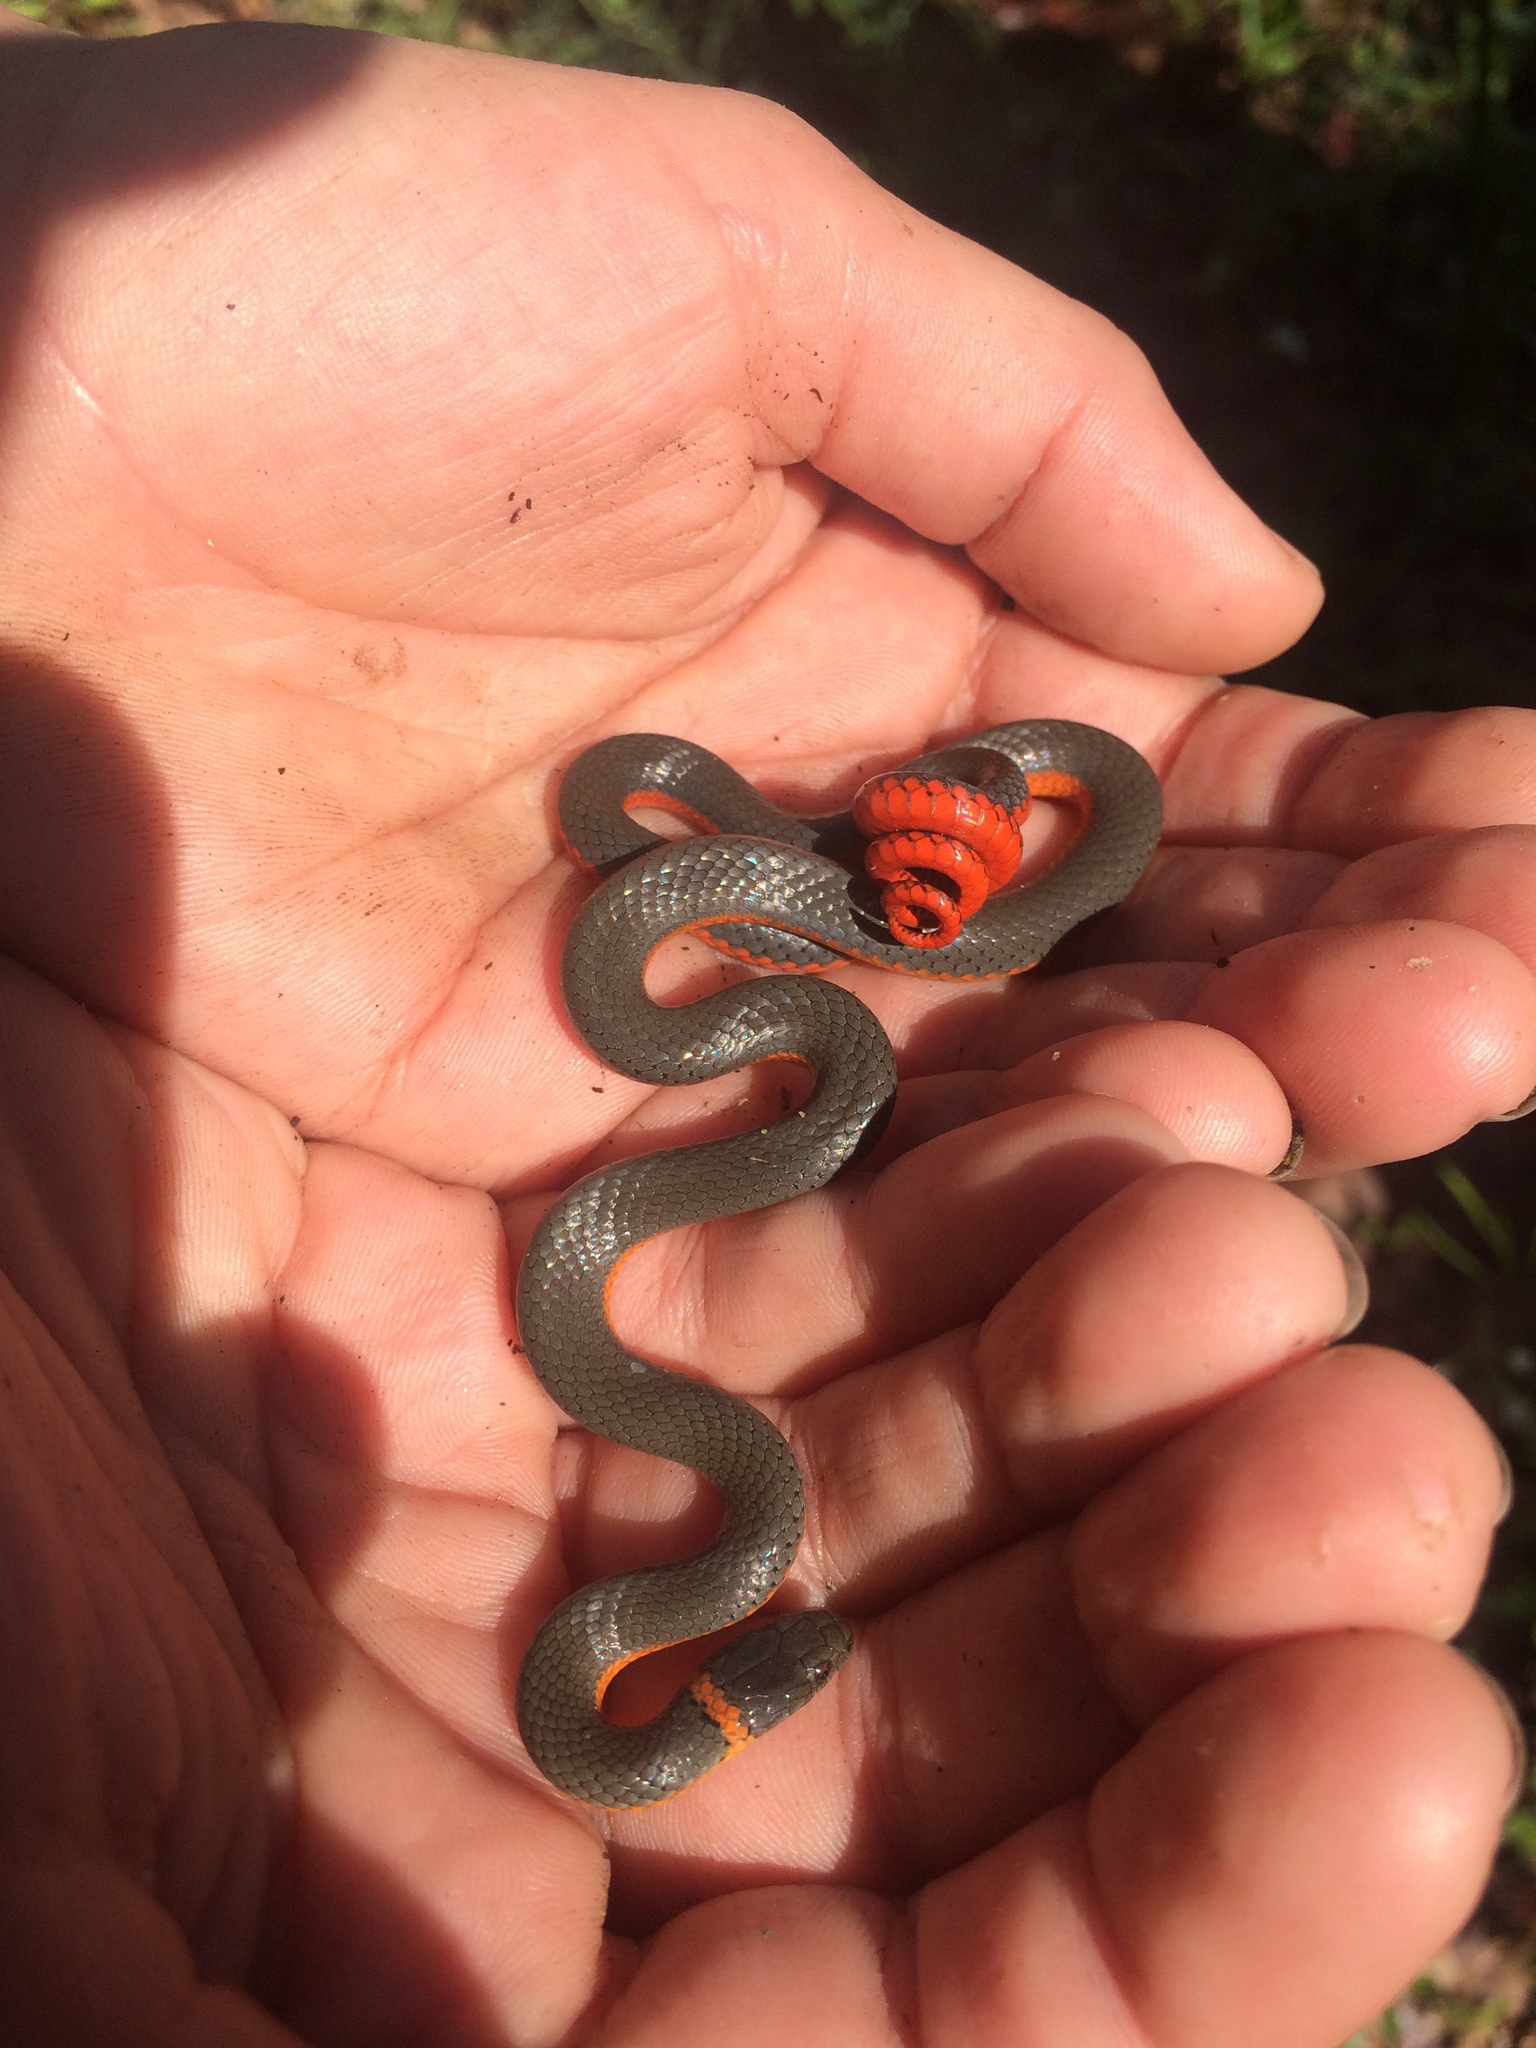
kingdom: Animalia
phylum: Chordata
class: Squamata
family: Colubridae
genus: Diadophis
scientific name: Diadophis punctatus
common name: Ringneck snake
